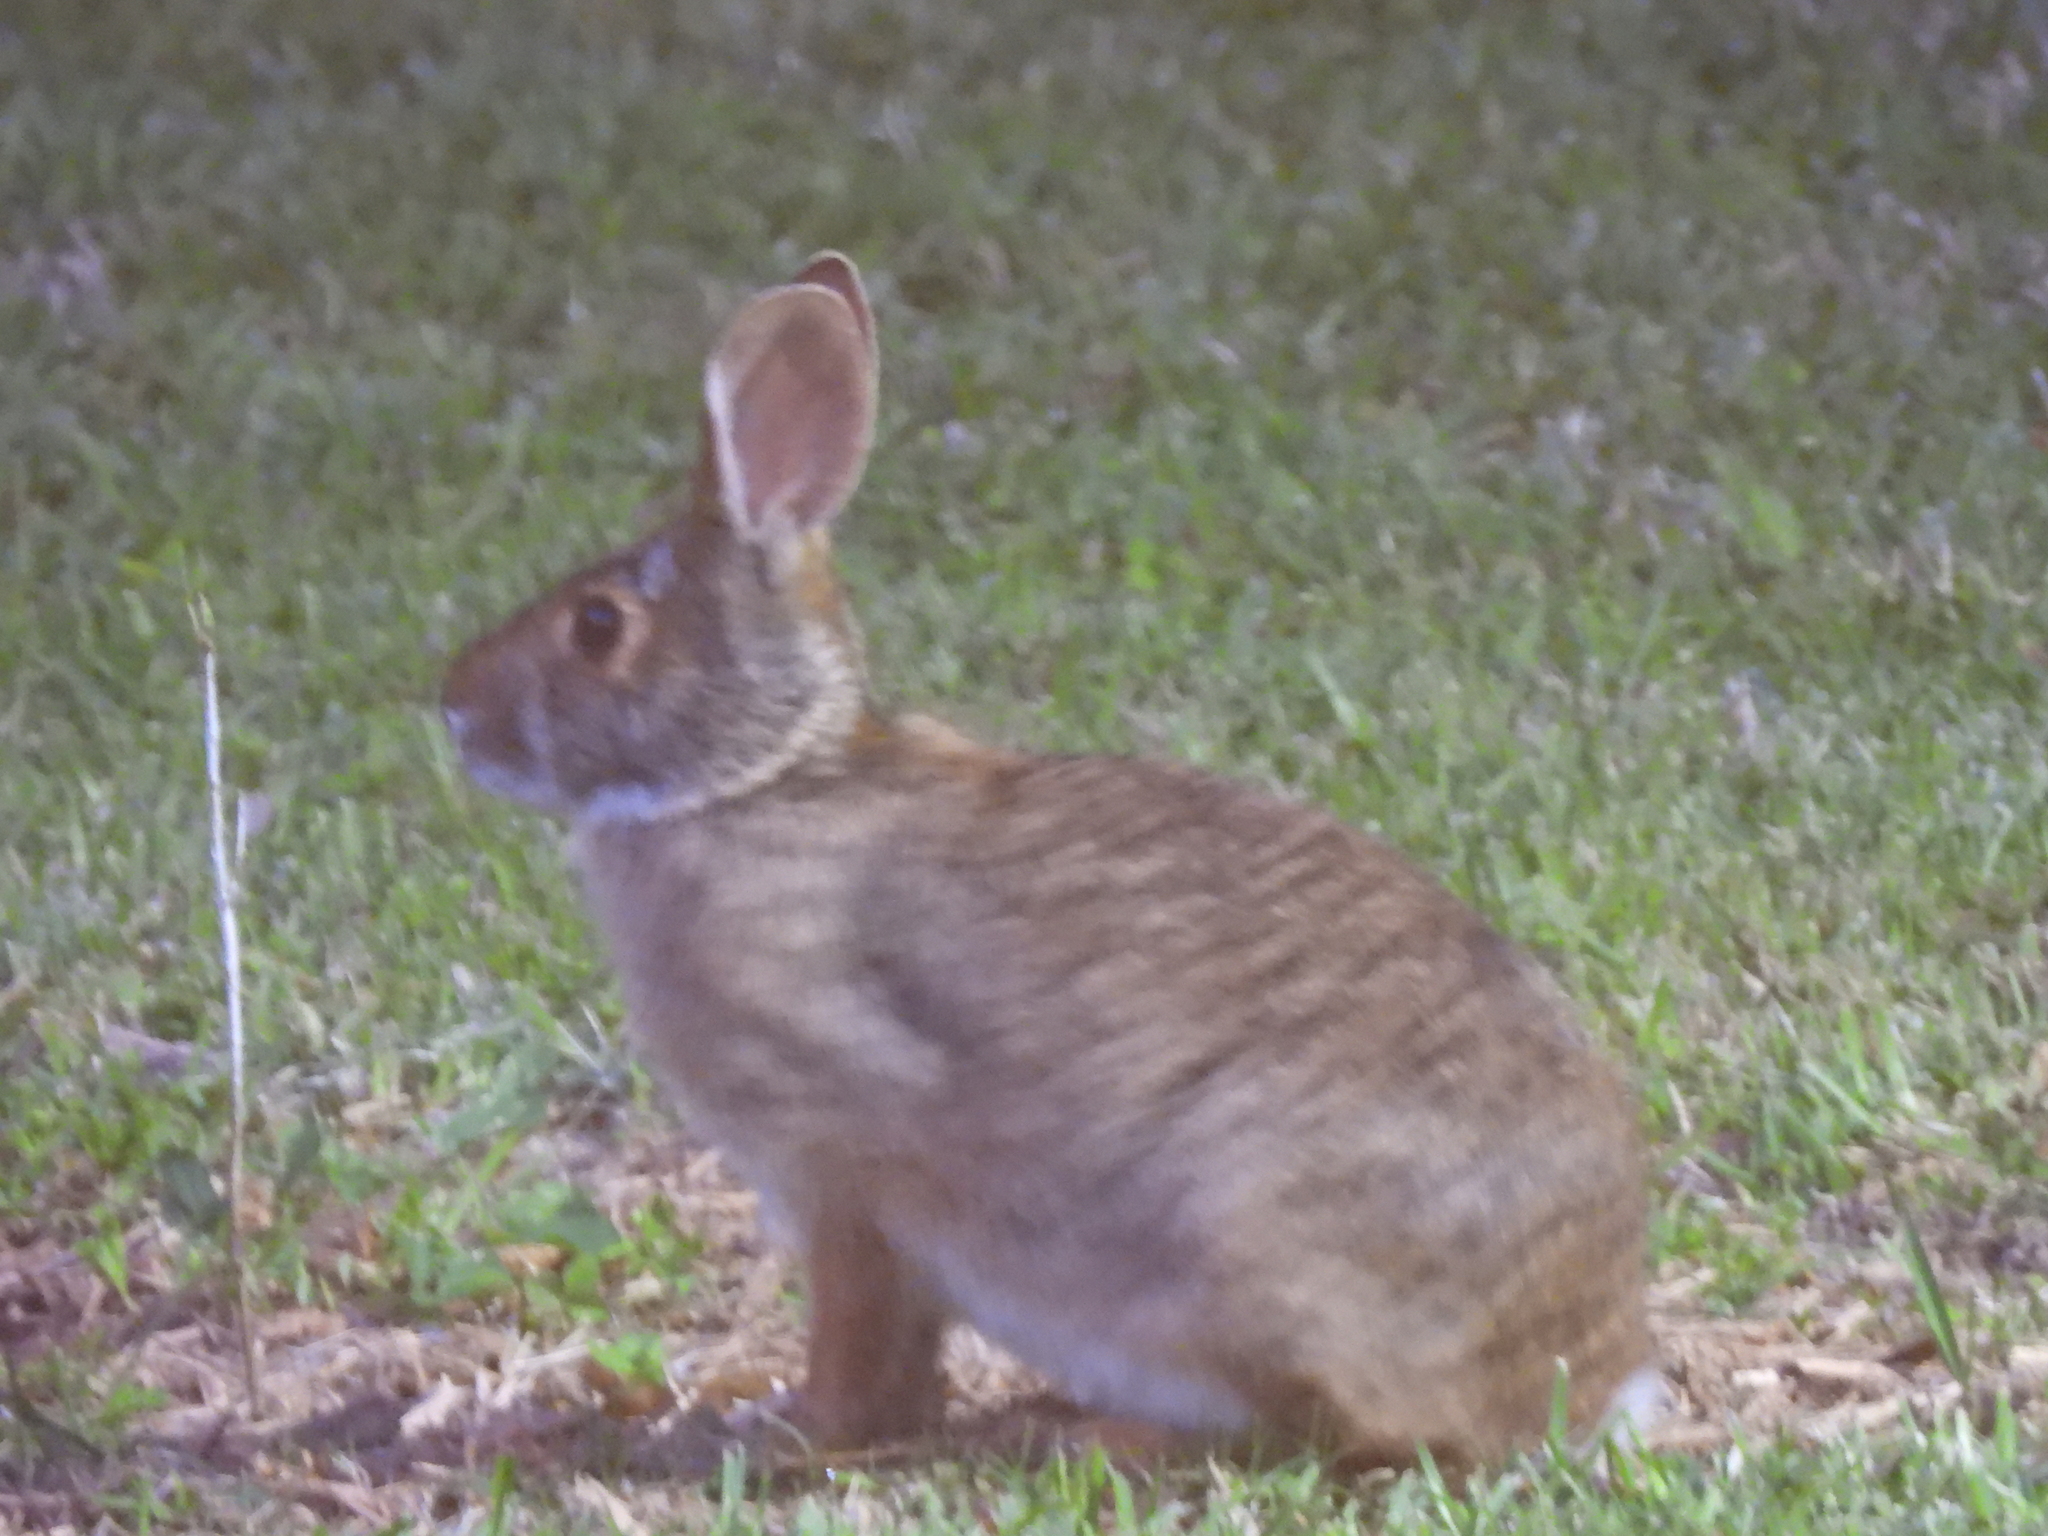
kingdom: Animalia
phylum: Chordata
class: Mammalia
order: Lagomorpha
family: Leporidae
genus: Sylvilagus
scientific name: Sylvilagus aquaticus
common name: Swamp rabbit
